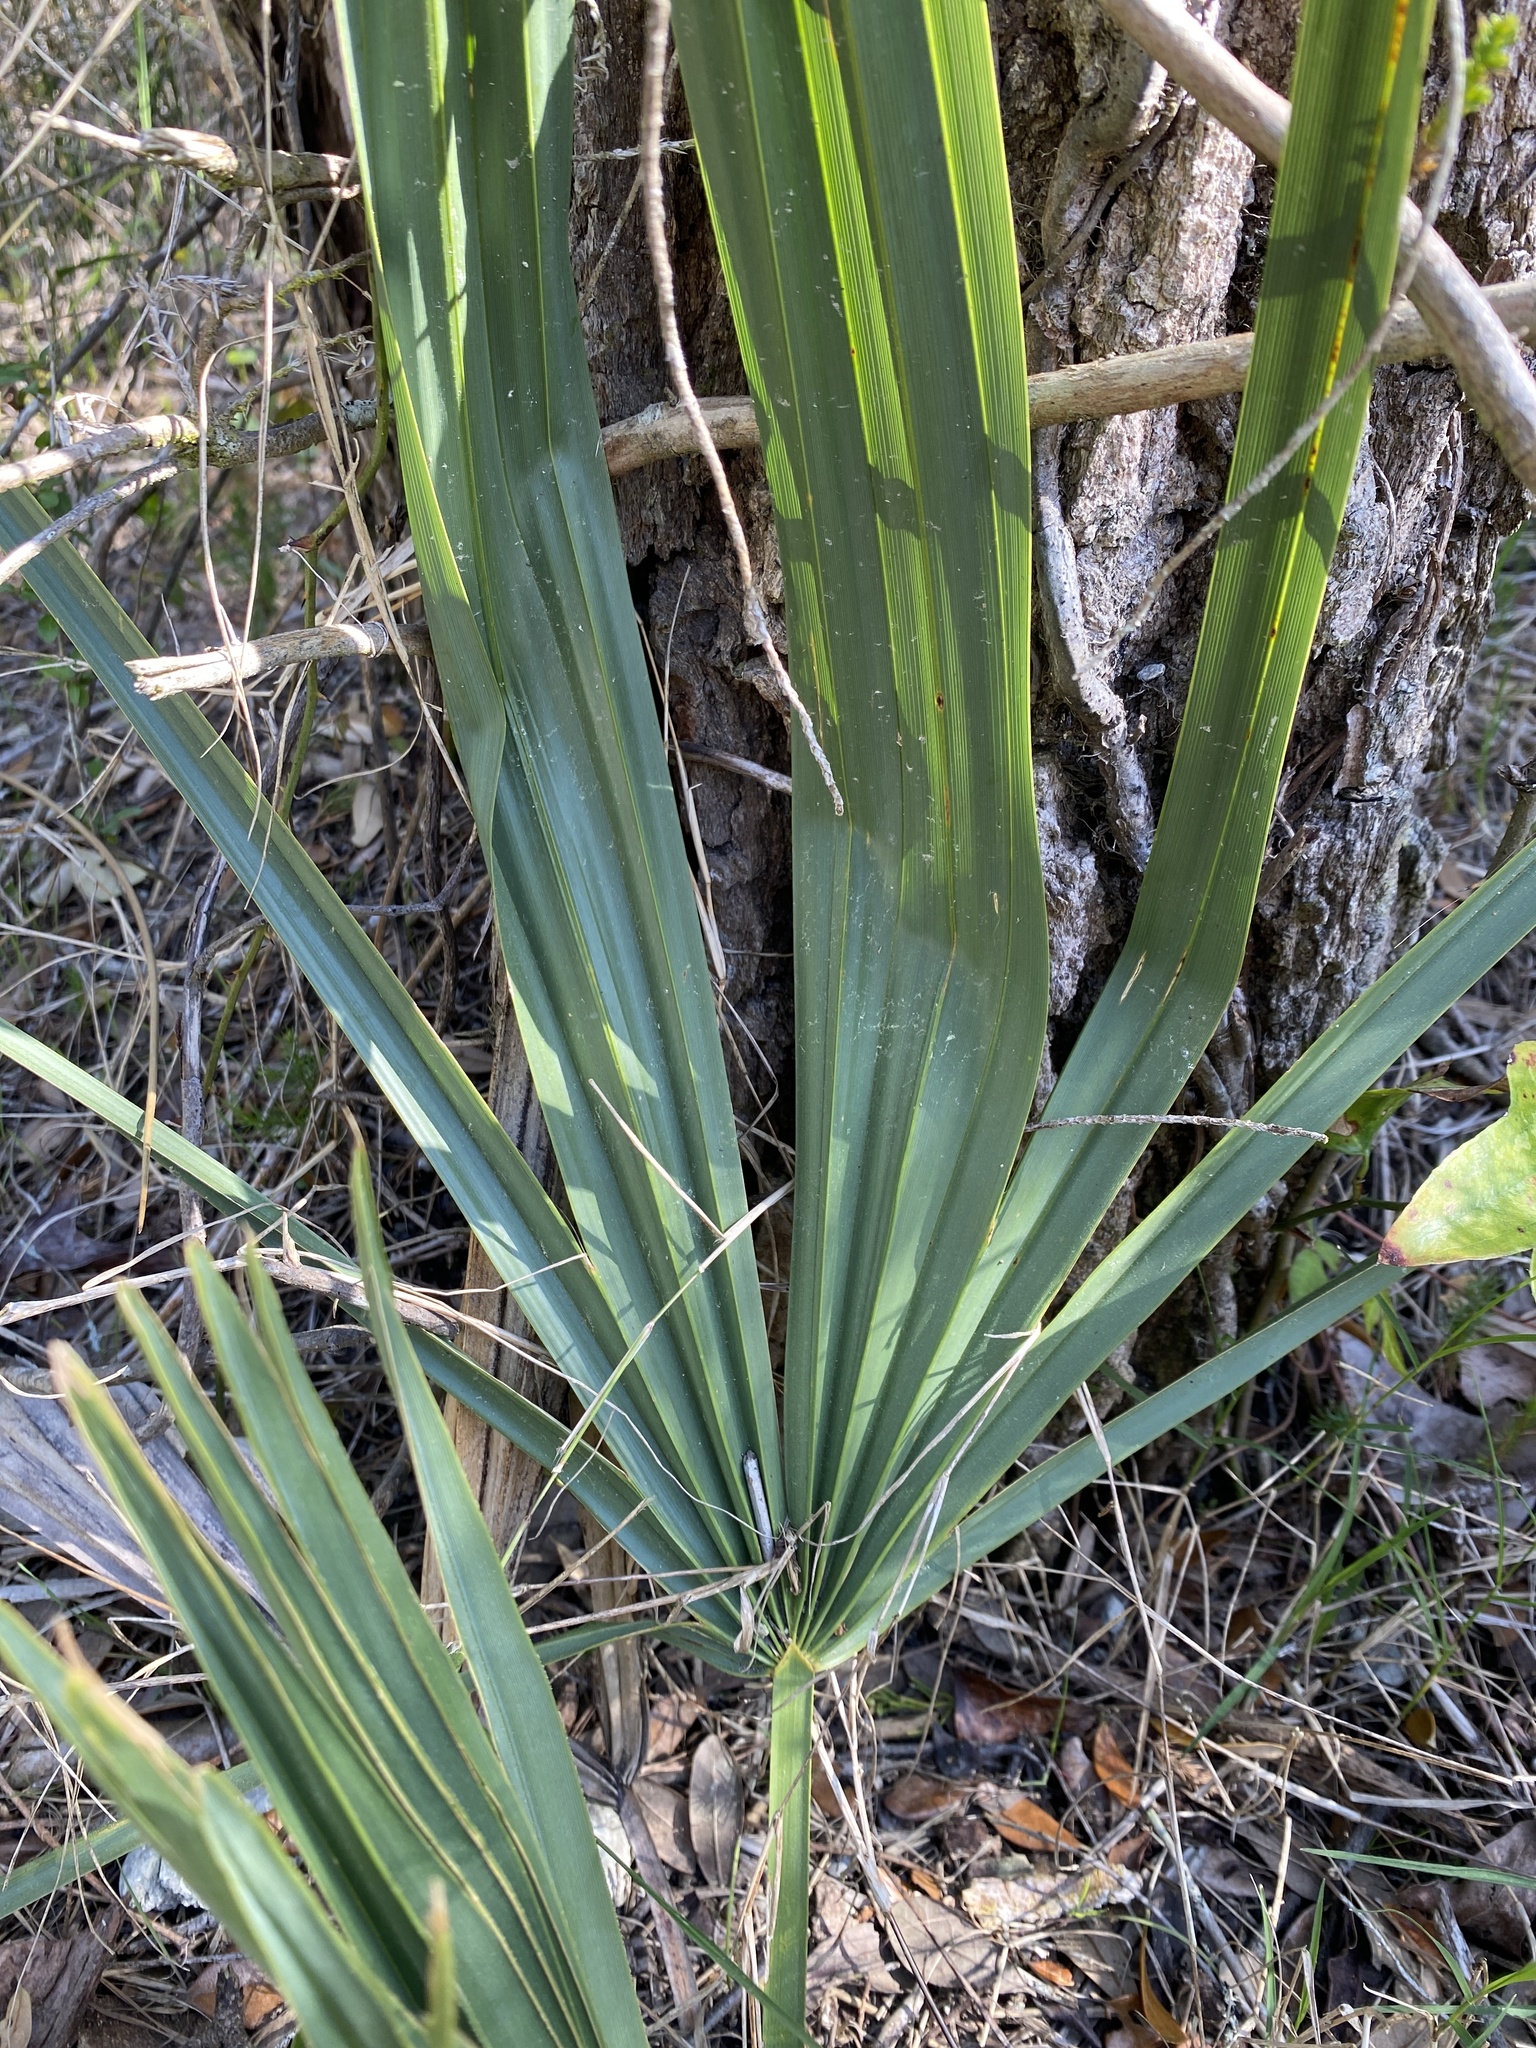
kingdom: Plantae
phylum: Tracheophyta
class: Liliopsida
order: Arecales
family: Arecaceae
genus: Sabal
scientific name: Sabal minor
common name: Dwarf palmetto
